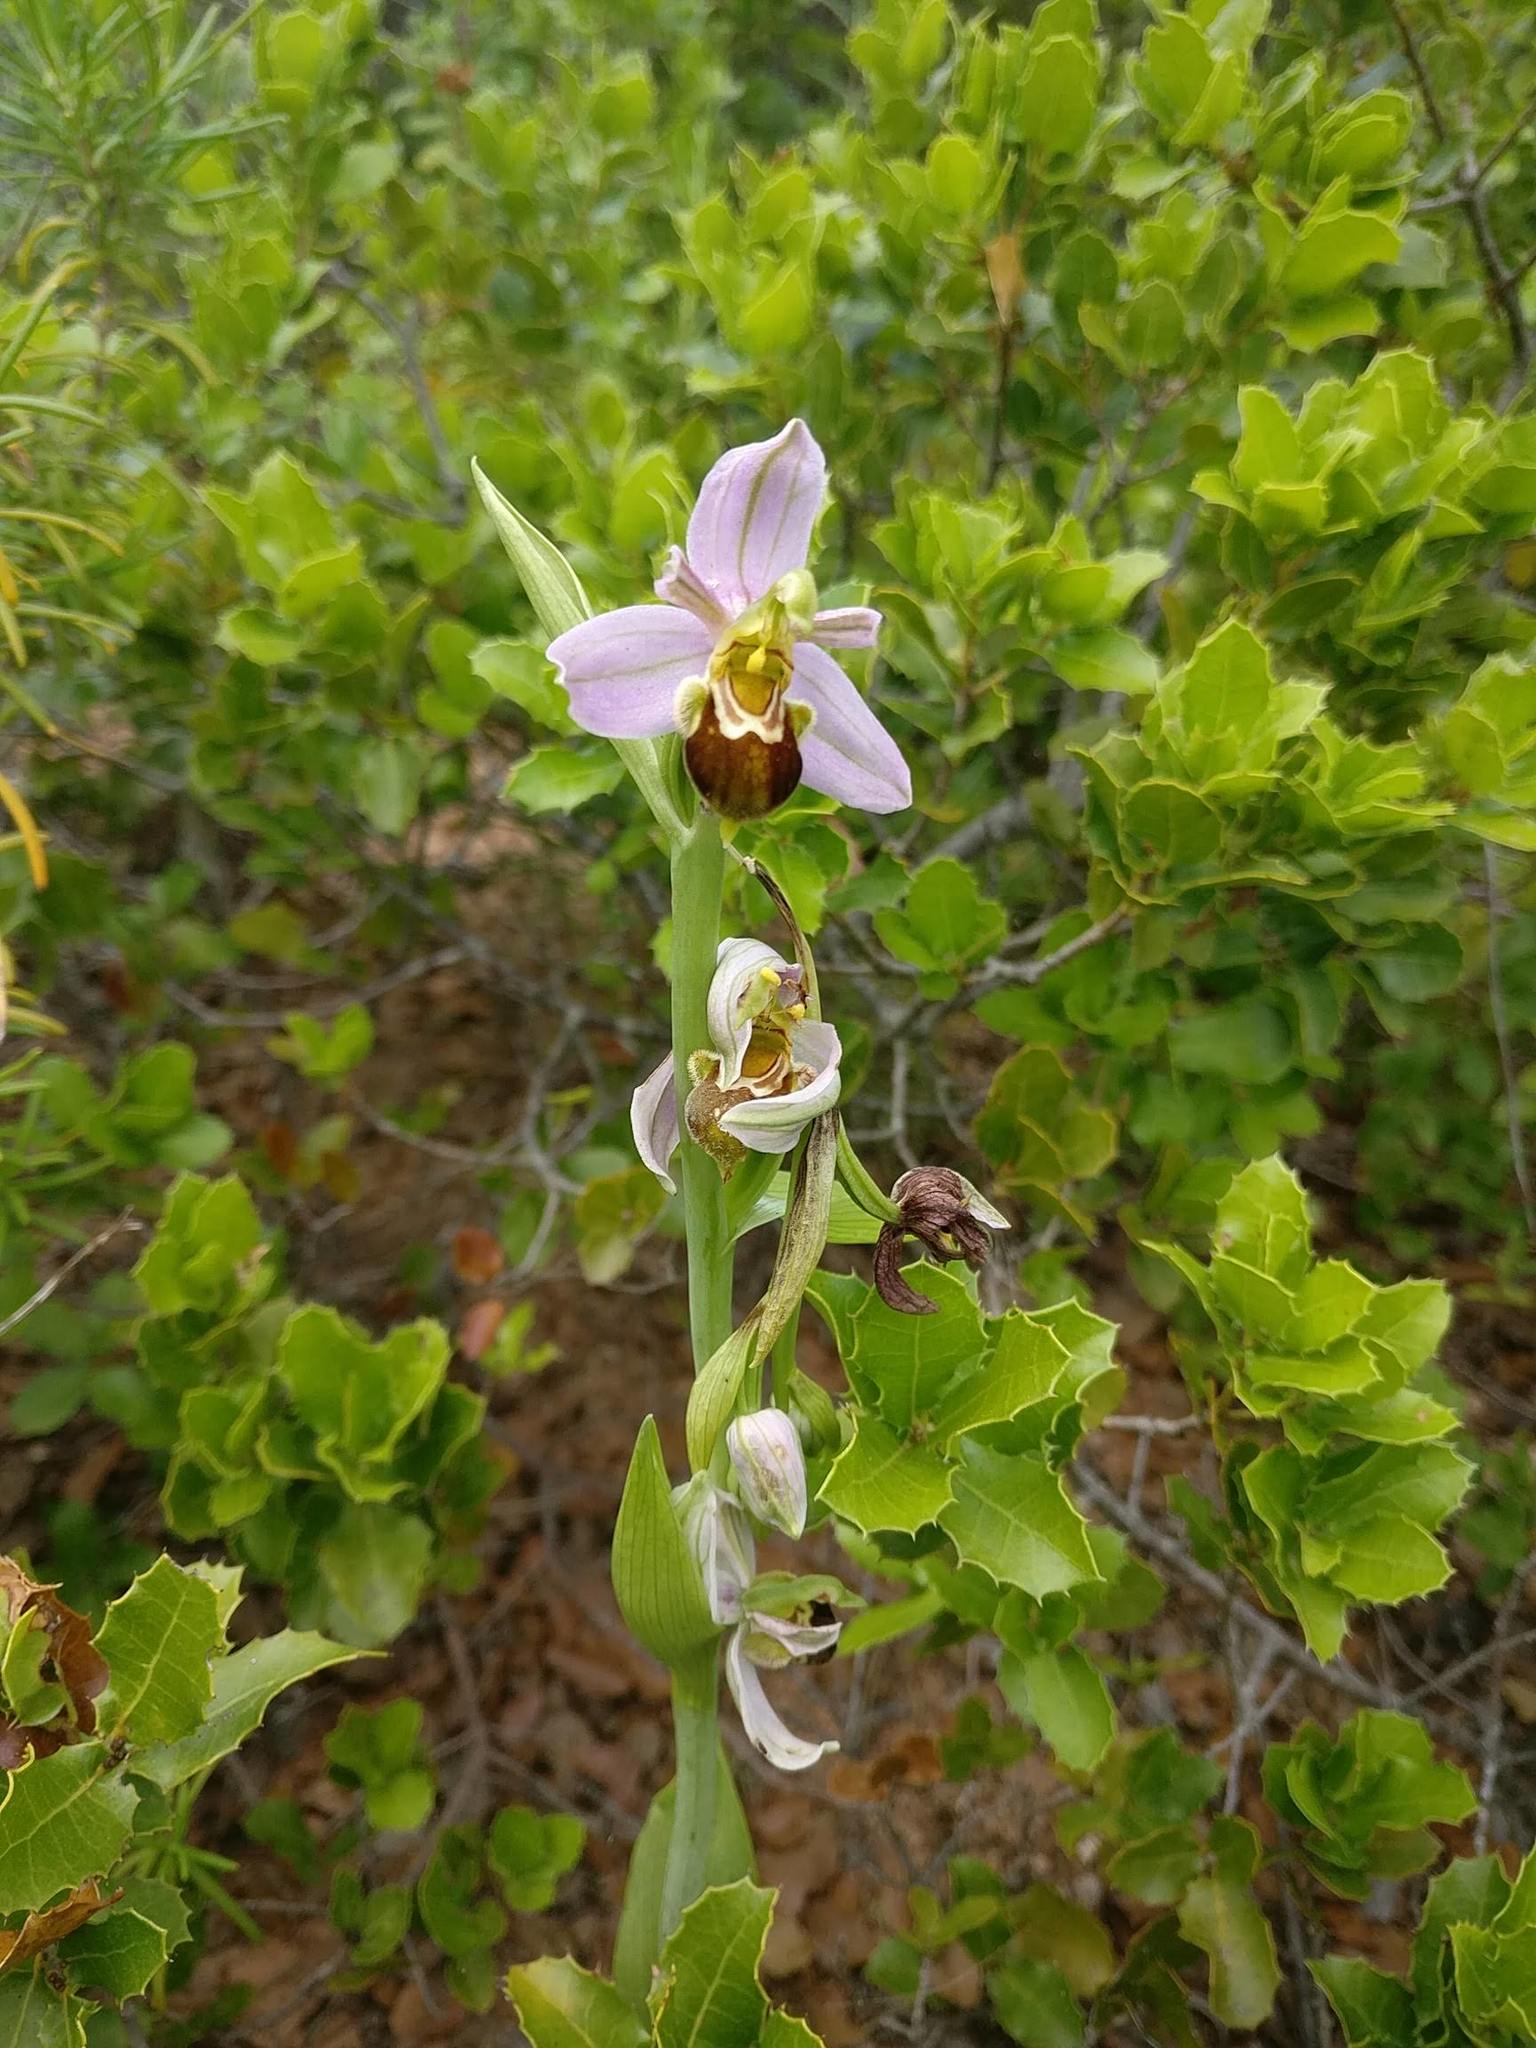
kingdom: Plantae
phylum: Tracheophyta
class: Liliopsida
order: Asparagales
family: Orchidaceae
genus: Ophrys
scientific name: Ophrys apifera
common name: Bee orchid
